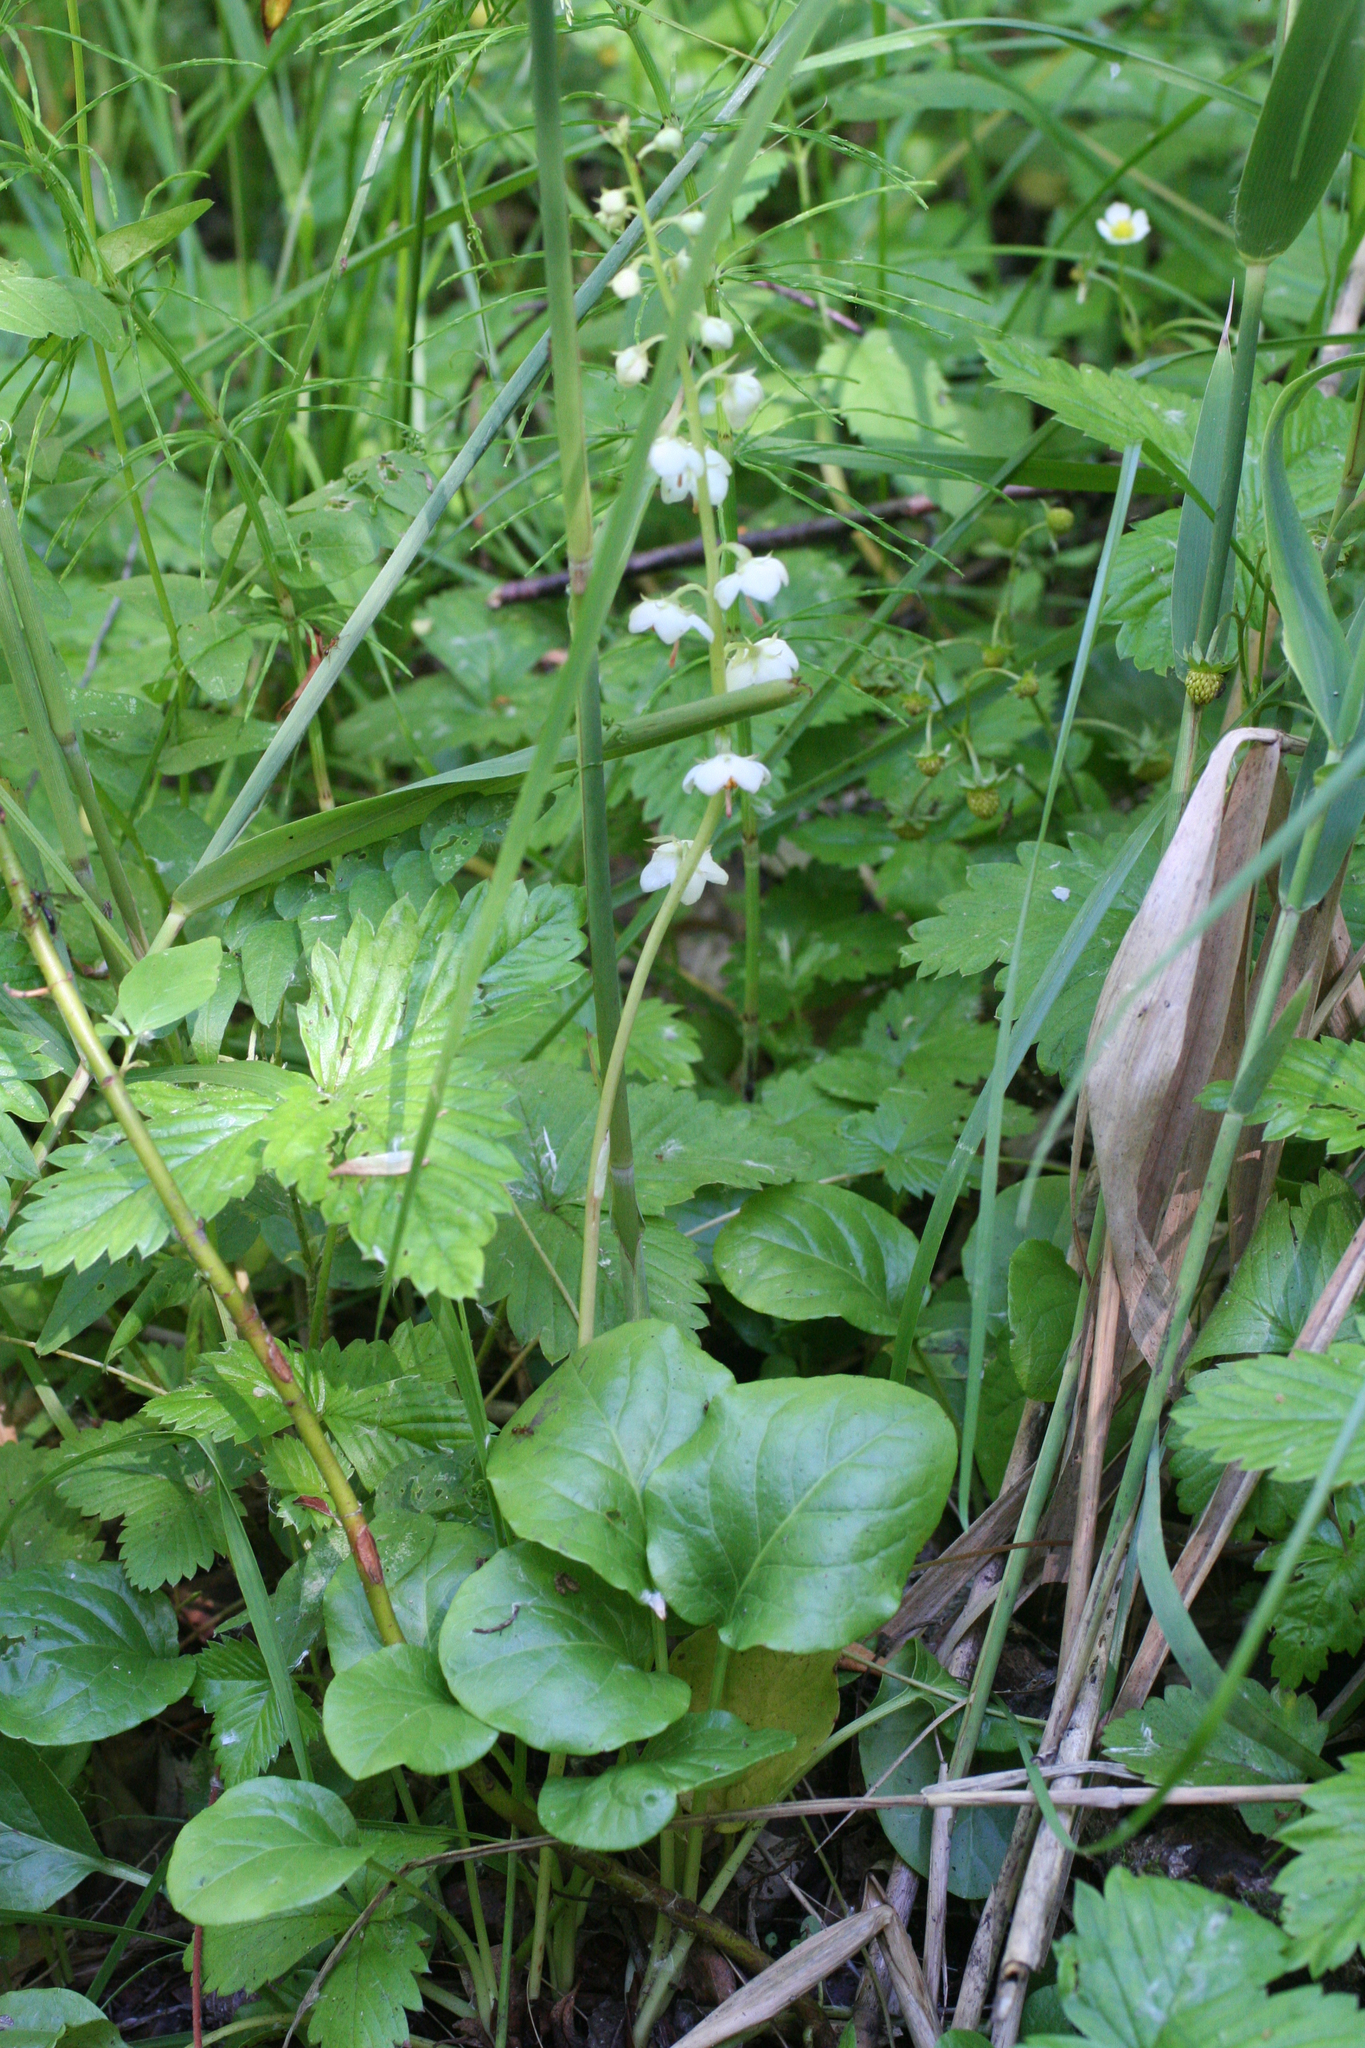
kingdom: Plantae
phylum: Tracheophyta
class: Magnoliopsida
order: Ericales
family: Ericaceae
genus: Pyrola
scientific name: Pyrola rotundifolia
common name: Round-leaved wintergreen
